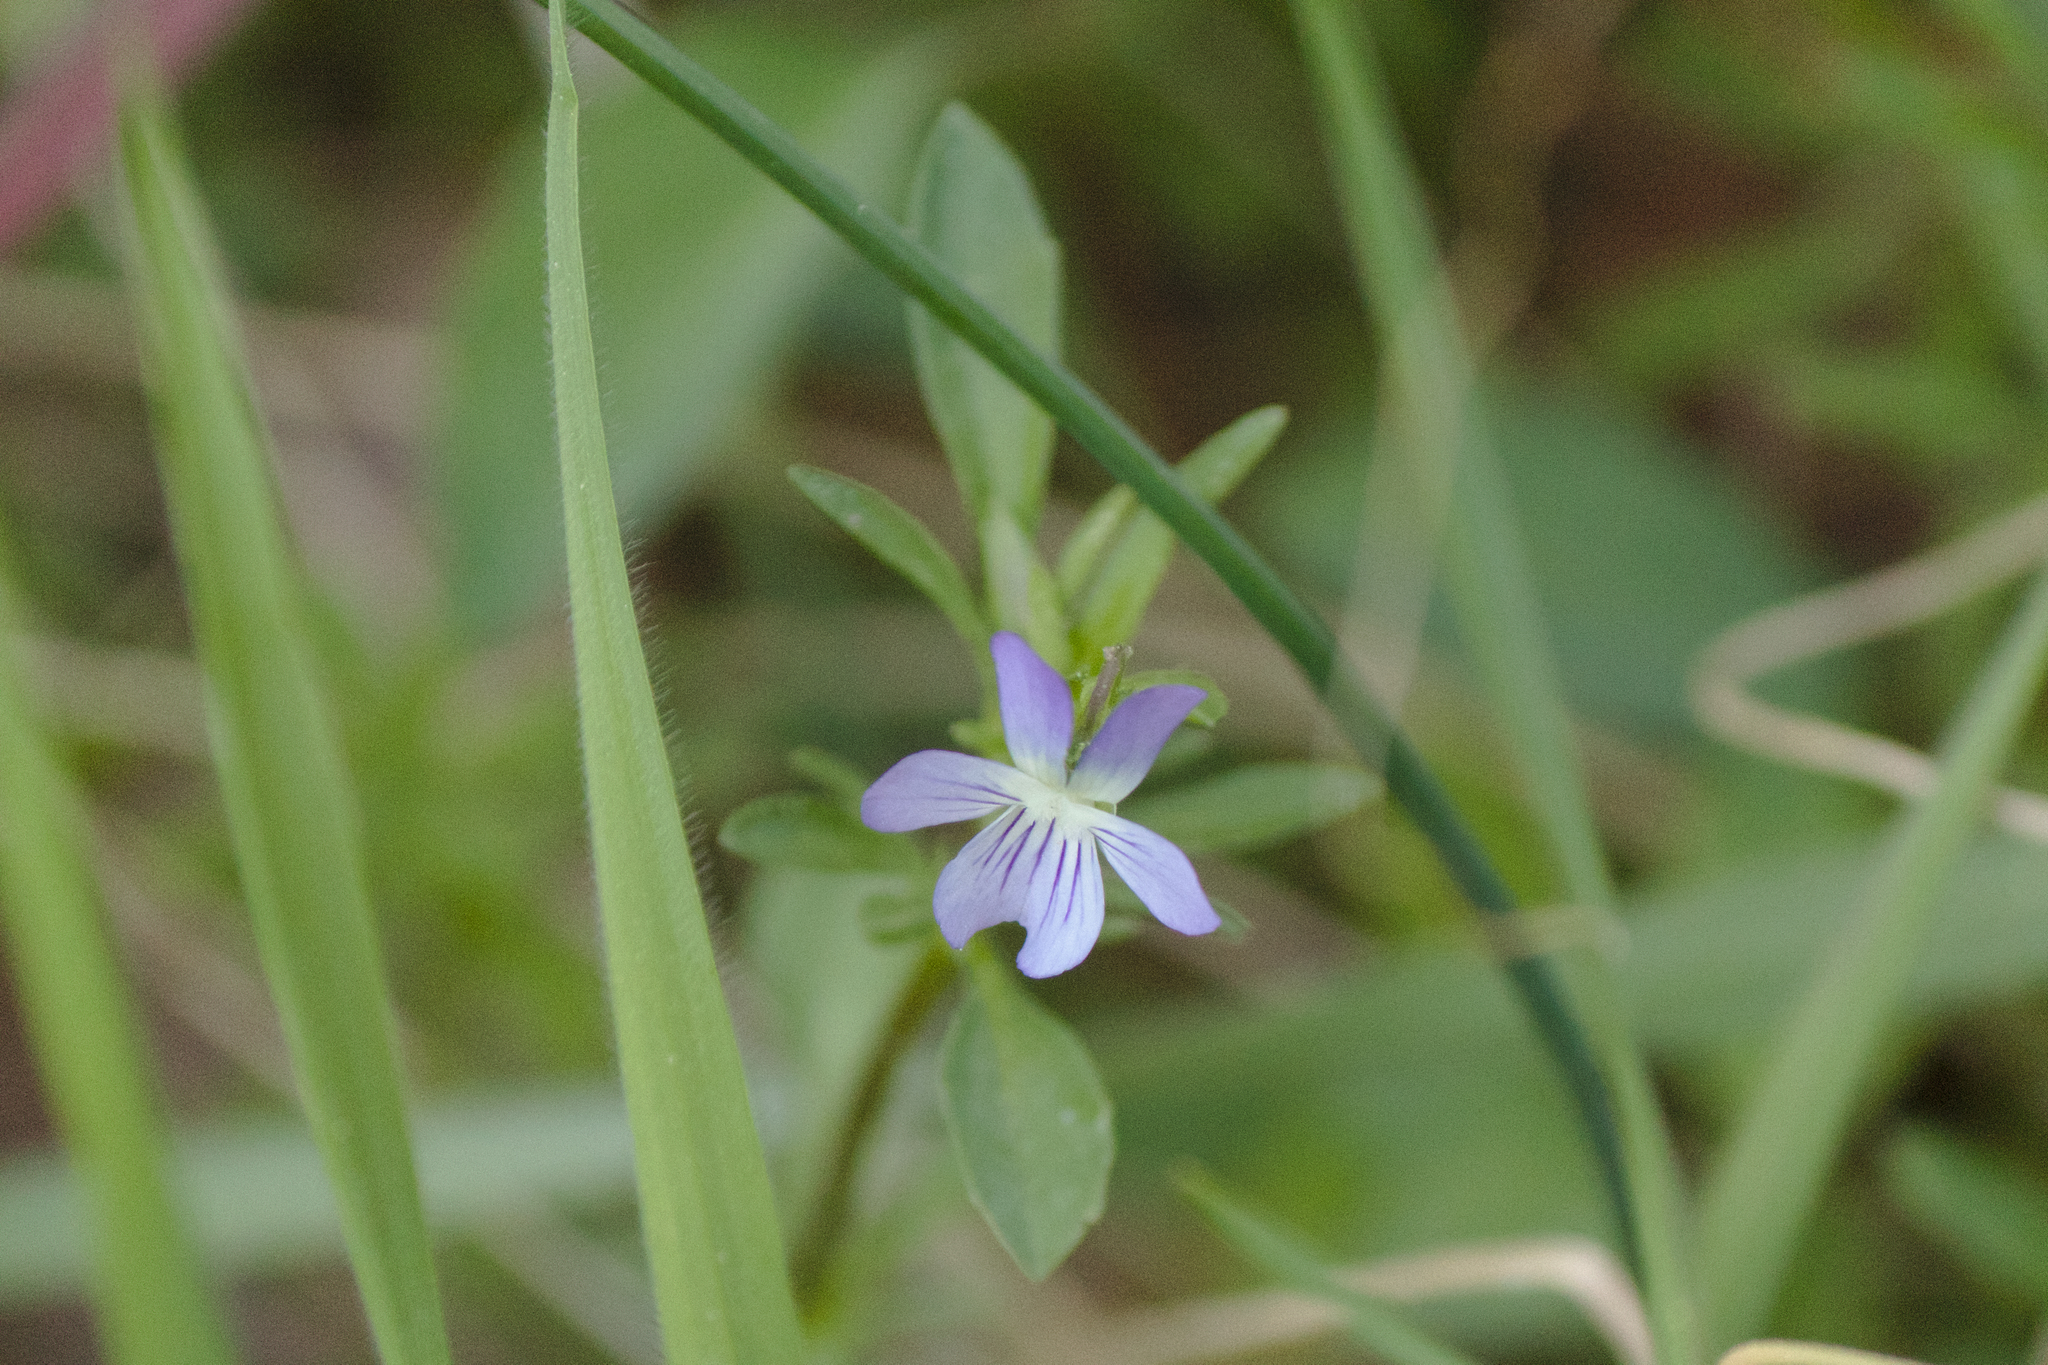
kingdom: Plantae
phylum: Tracheophyta
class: Magnoliopsida
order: Malpighiales
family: Violaceae
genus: Viola
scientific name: Viola rafinesquei
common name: American field pansy
